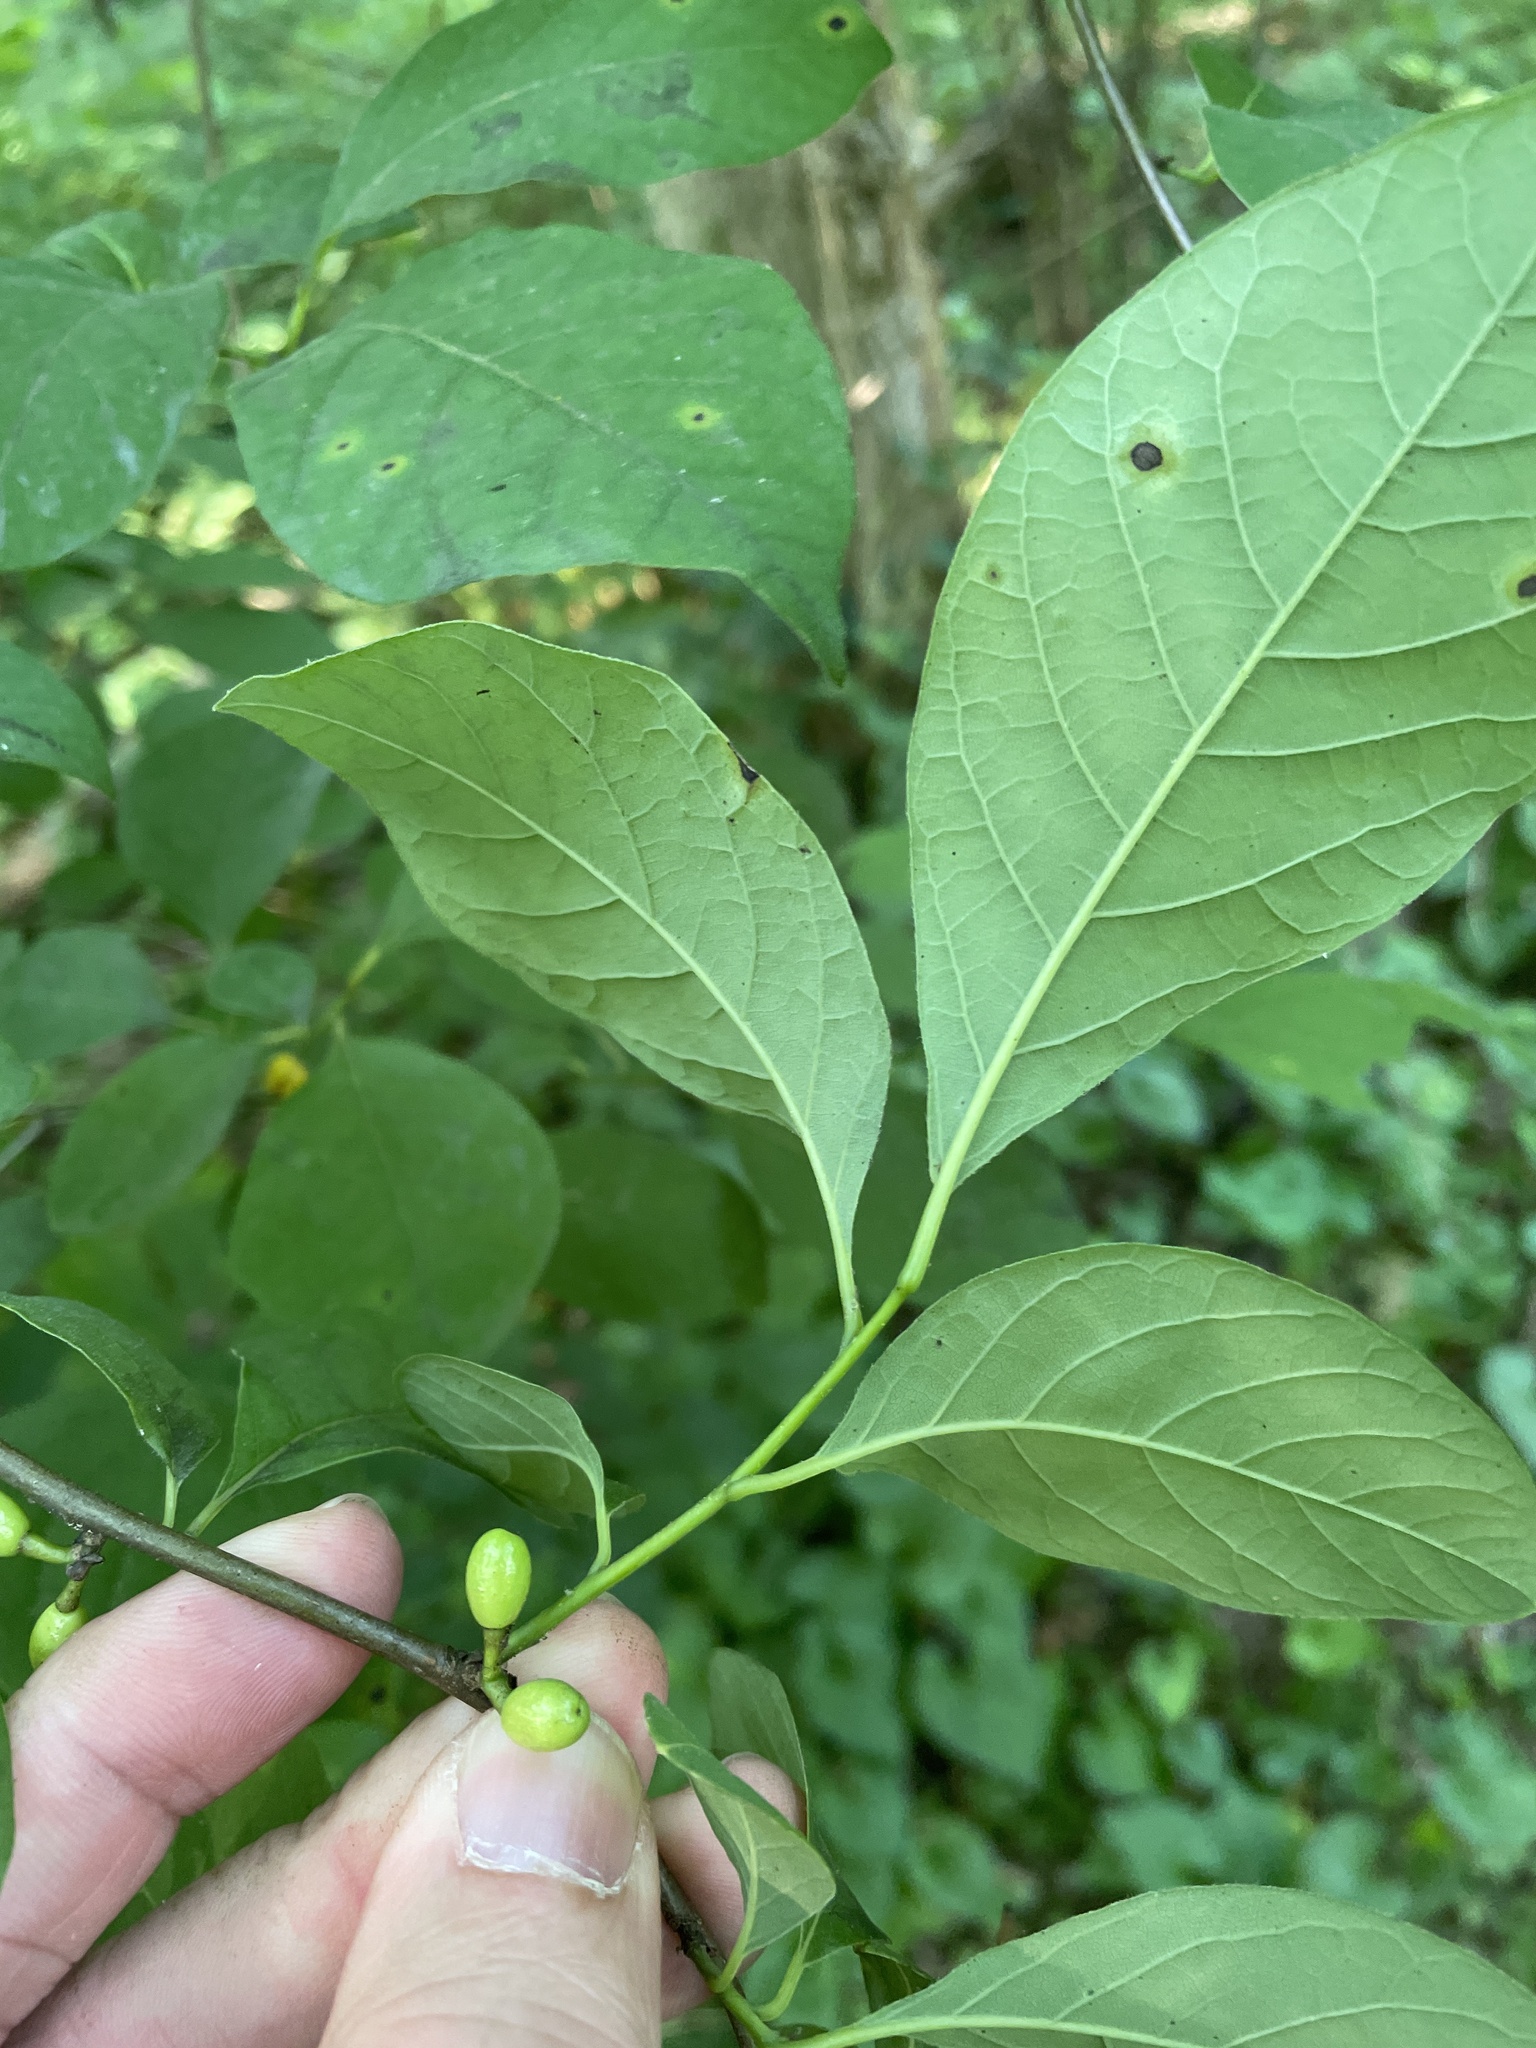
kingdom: Plantae
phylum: Tracheophyta
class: Magnoliopsida
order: Laurales
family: Lauraceae
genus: Lindera
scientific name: Lindera benzoin
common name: Spicebush
